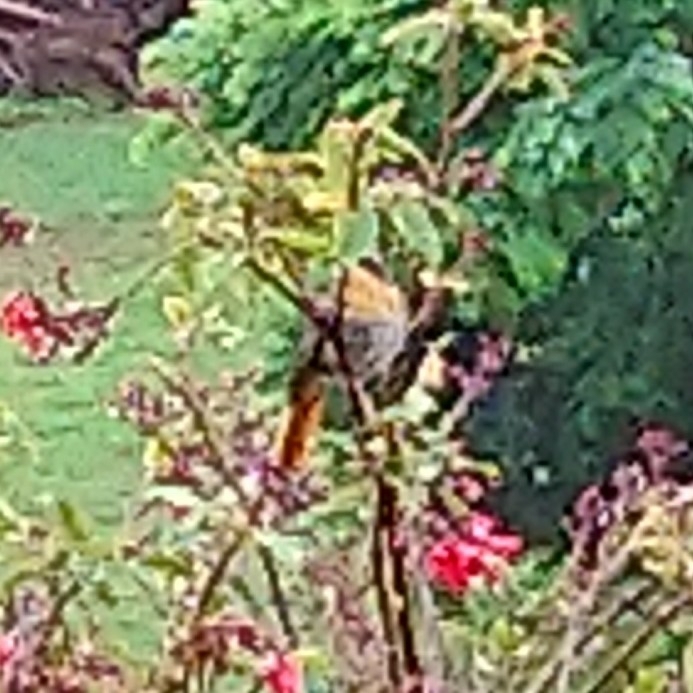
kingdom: Animalia
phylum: Chordata
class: Aves
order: Passeriformes
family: Muscicapidae
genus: Cossypha
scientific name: Cossypha caffra
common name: Cape robin-chat
